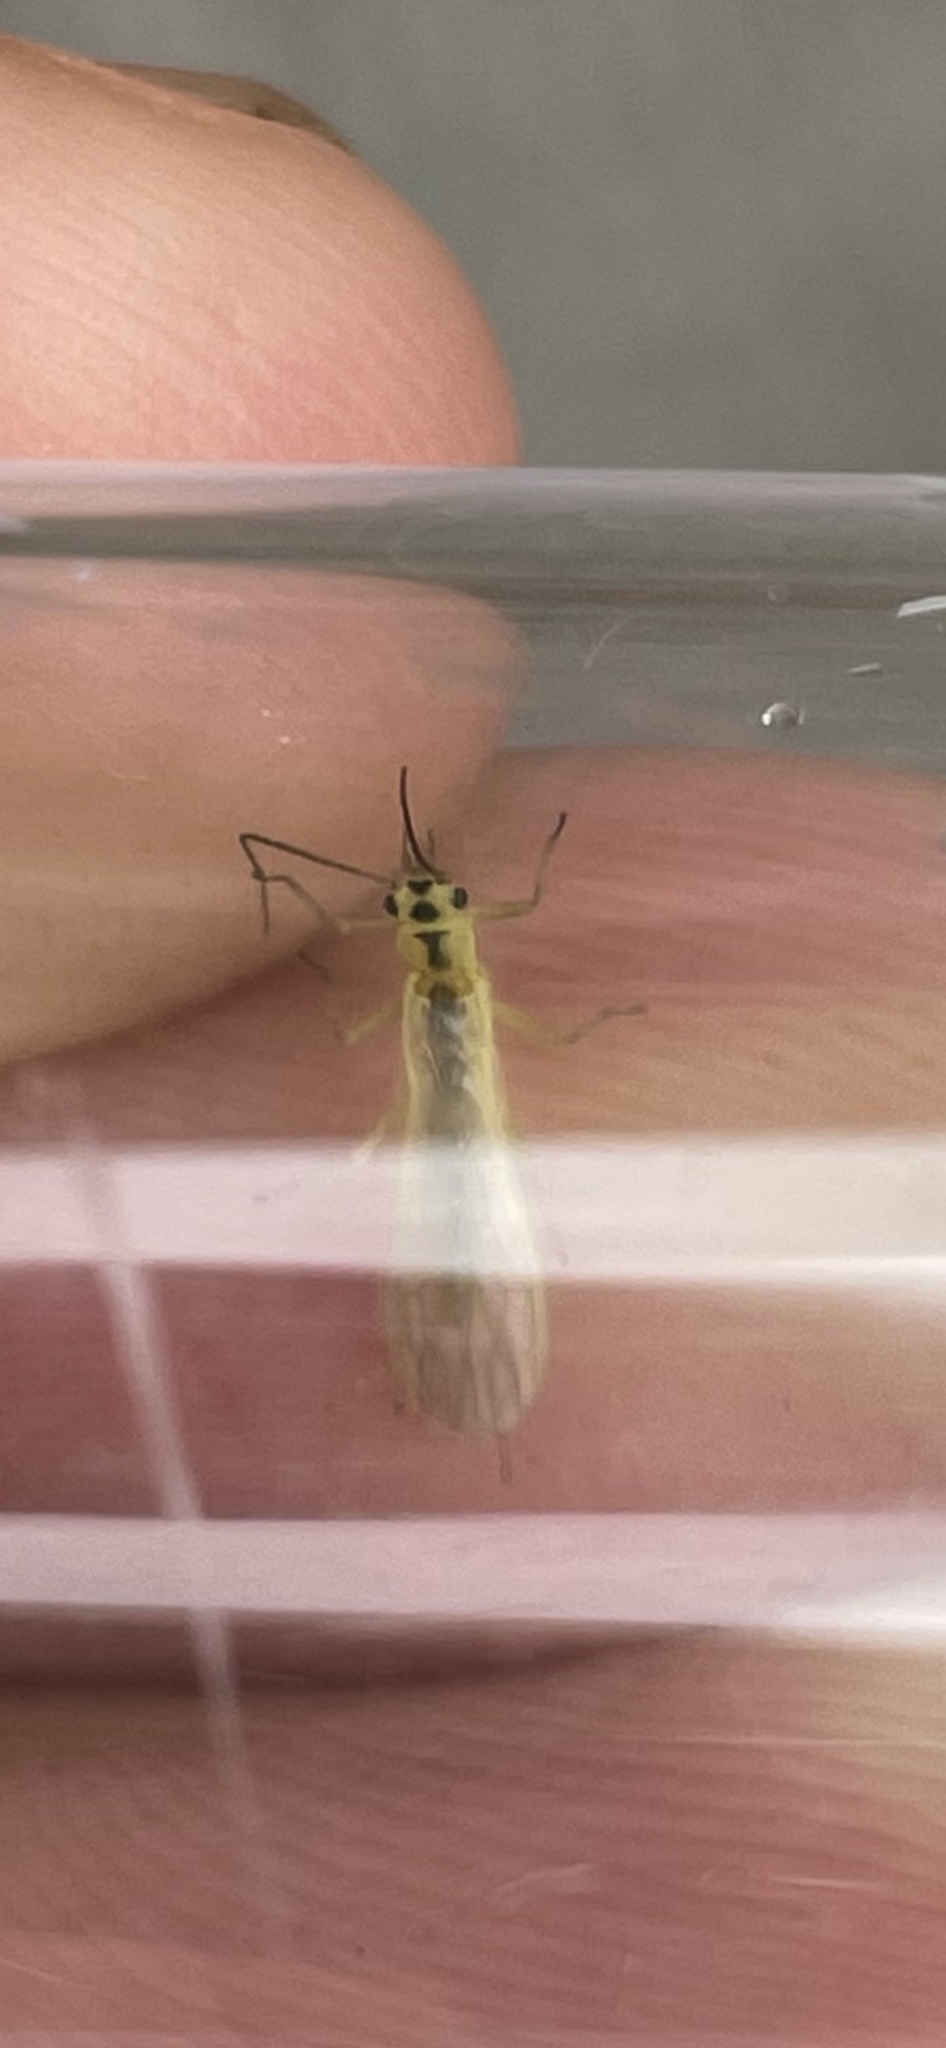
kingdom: Animalia
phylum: Arthropoda
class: Insecta
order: Plecoptera
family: Chloroperlidae
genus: Triznaka
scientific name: Triznaka signata
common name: Striped sallfly
